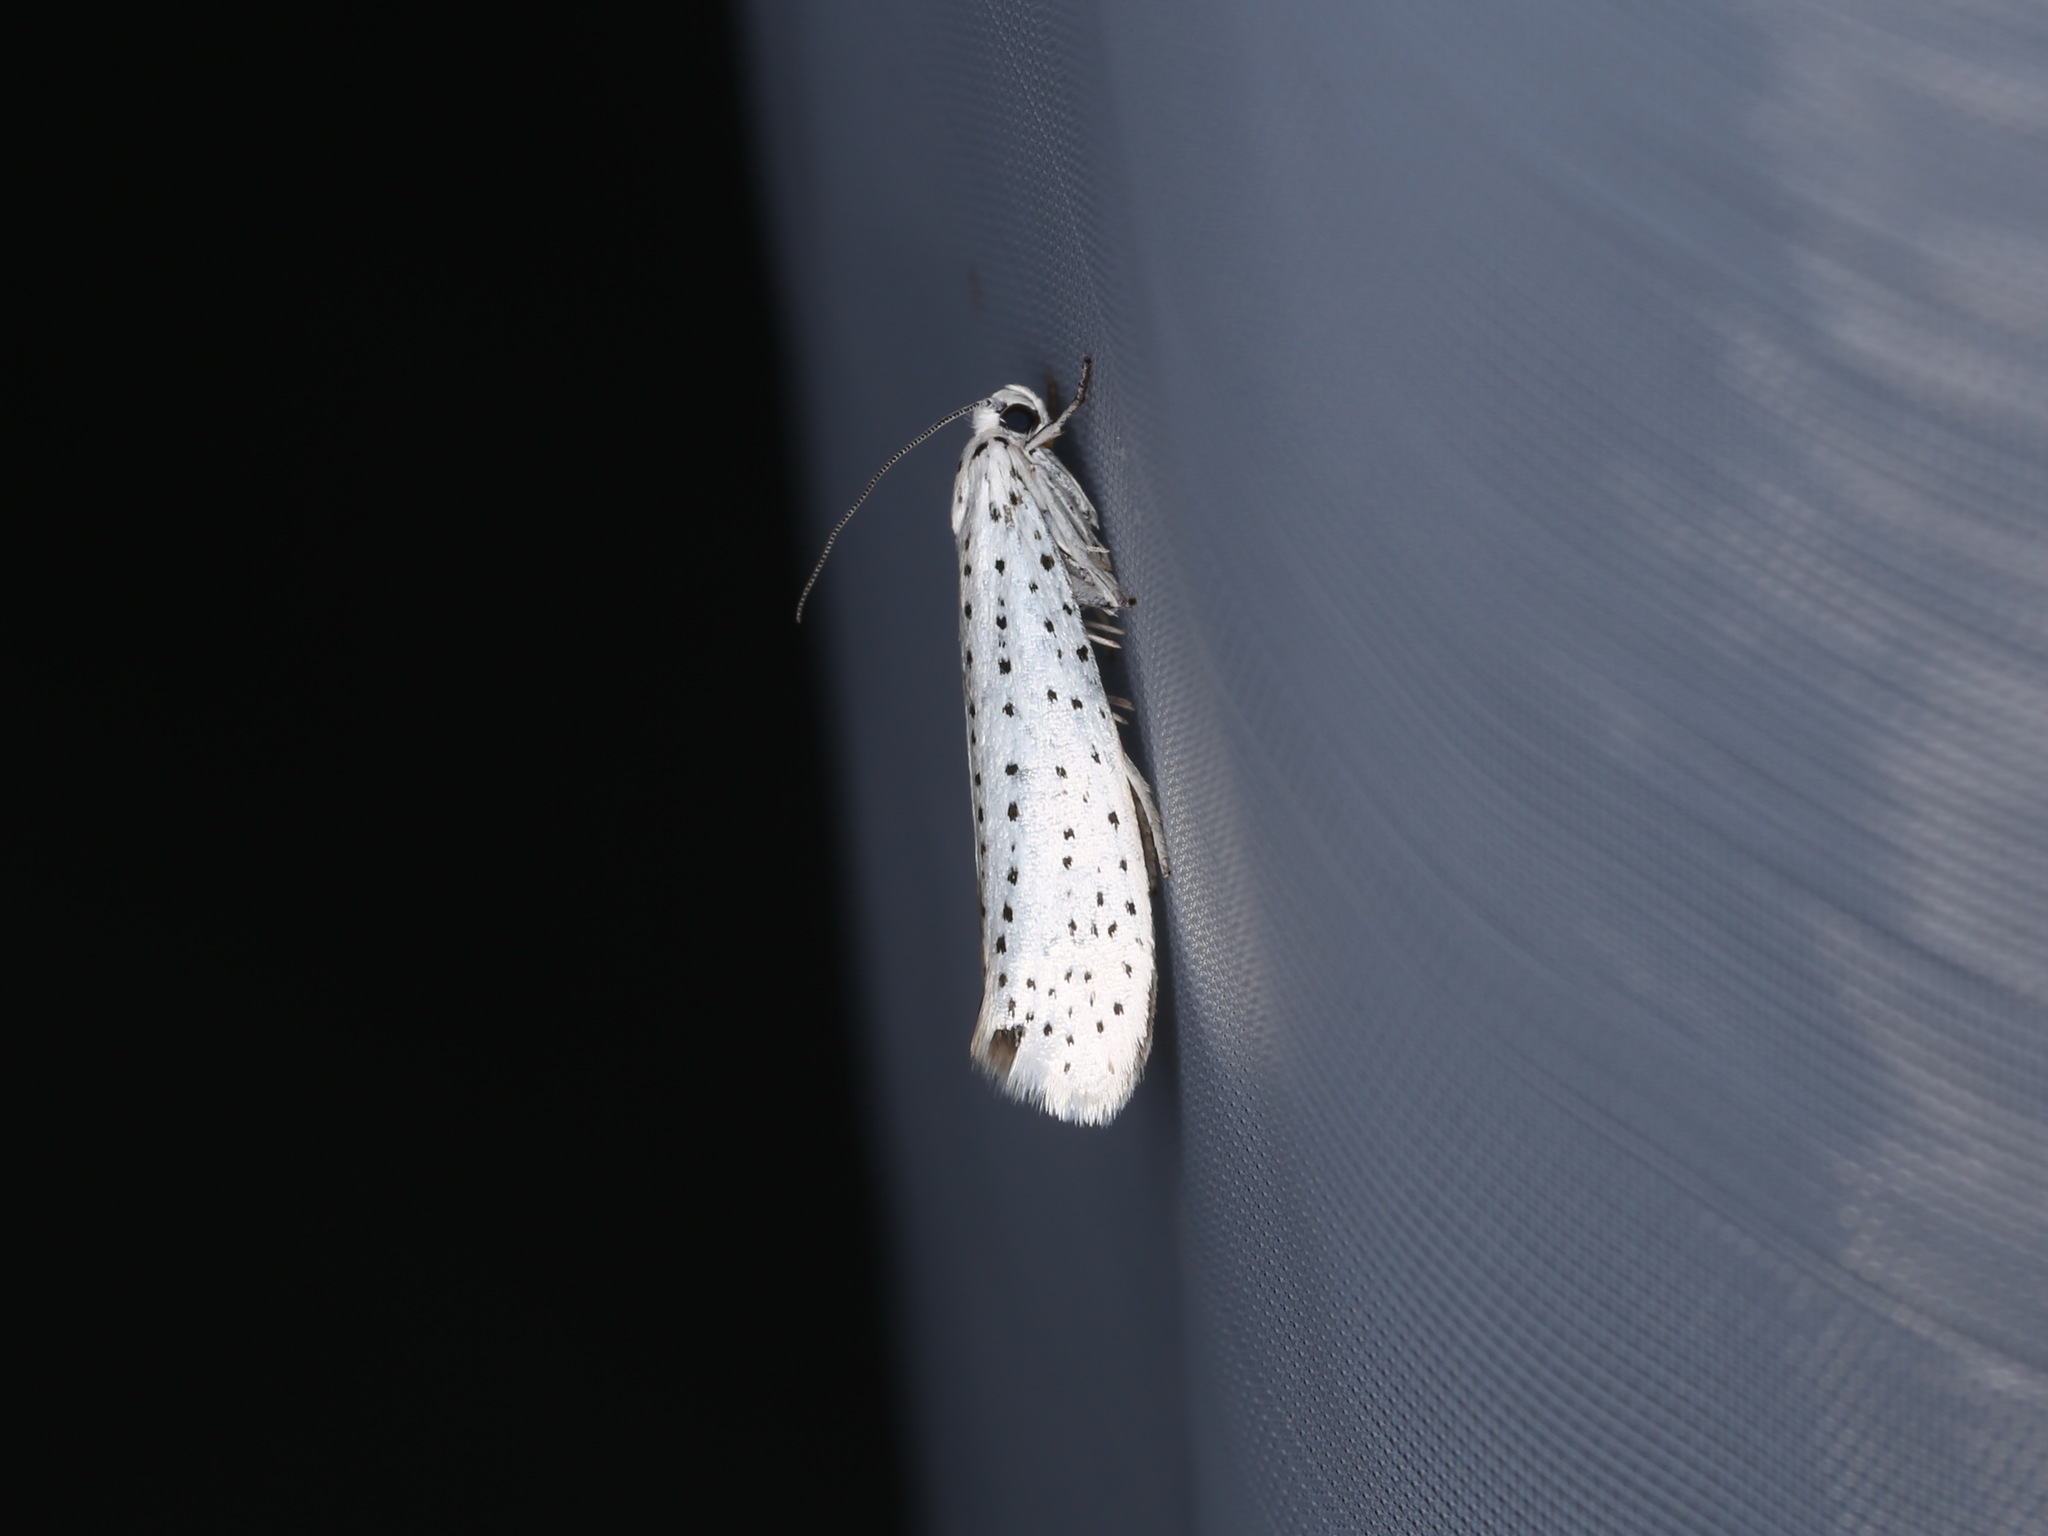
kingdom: Animalia
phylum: Arthropoda
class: Insecta
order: Lepidoptera
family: Yponomeutidae
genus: Yponomeuta
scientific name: Yponomeuta evonymella
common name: Bird-cherry ermine
